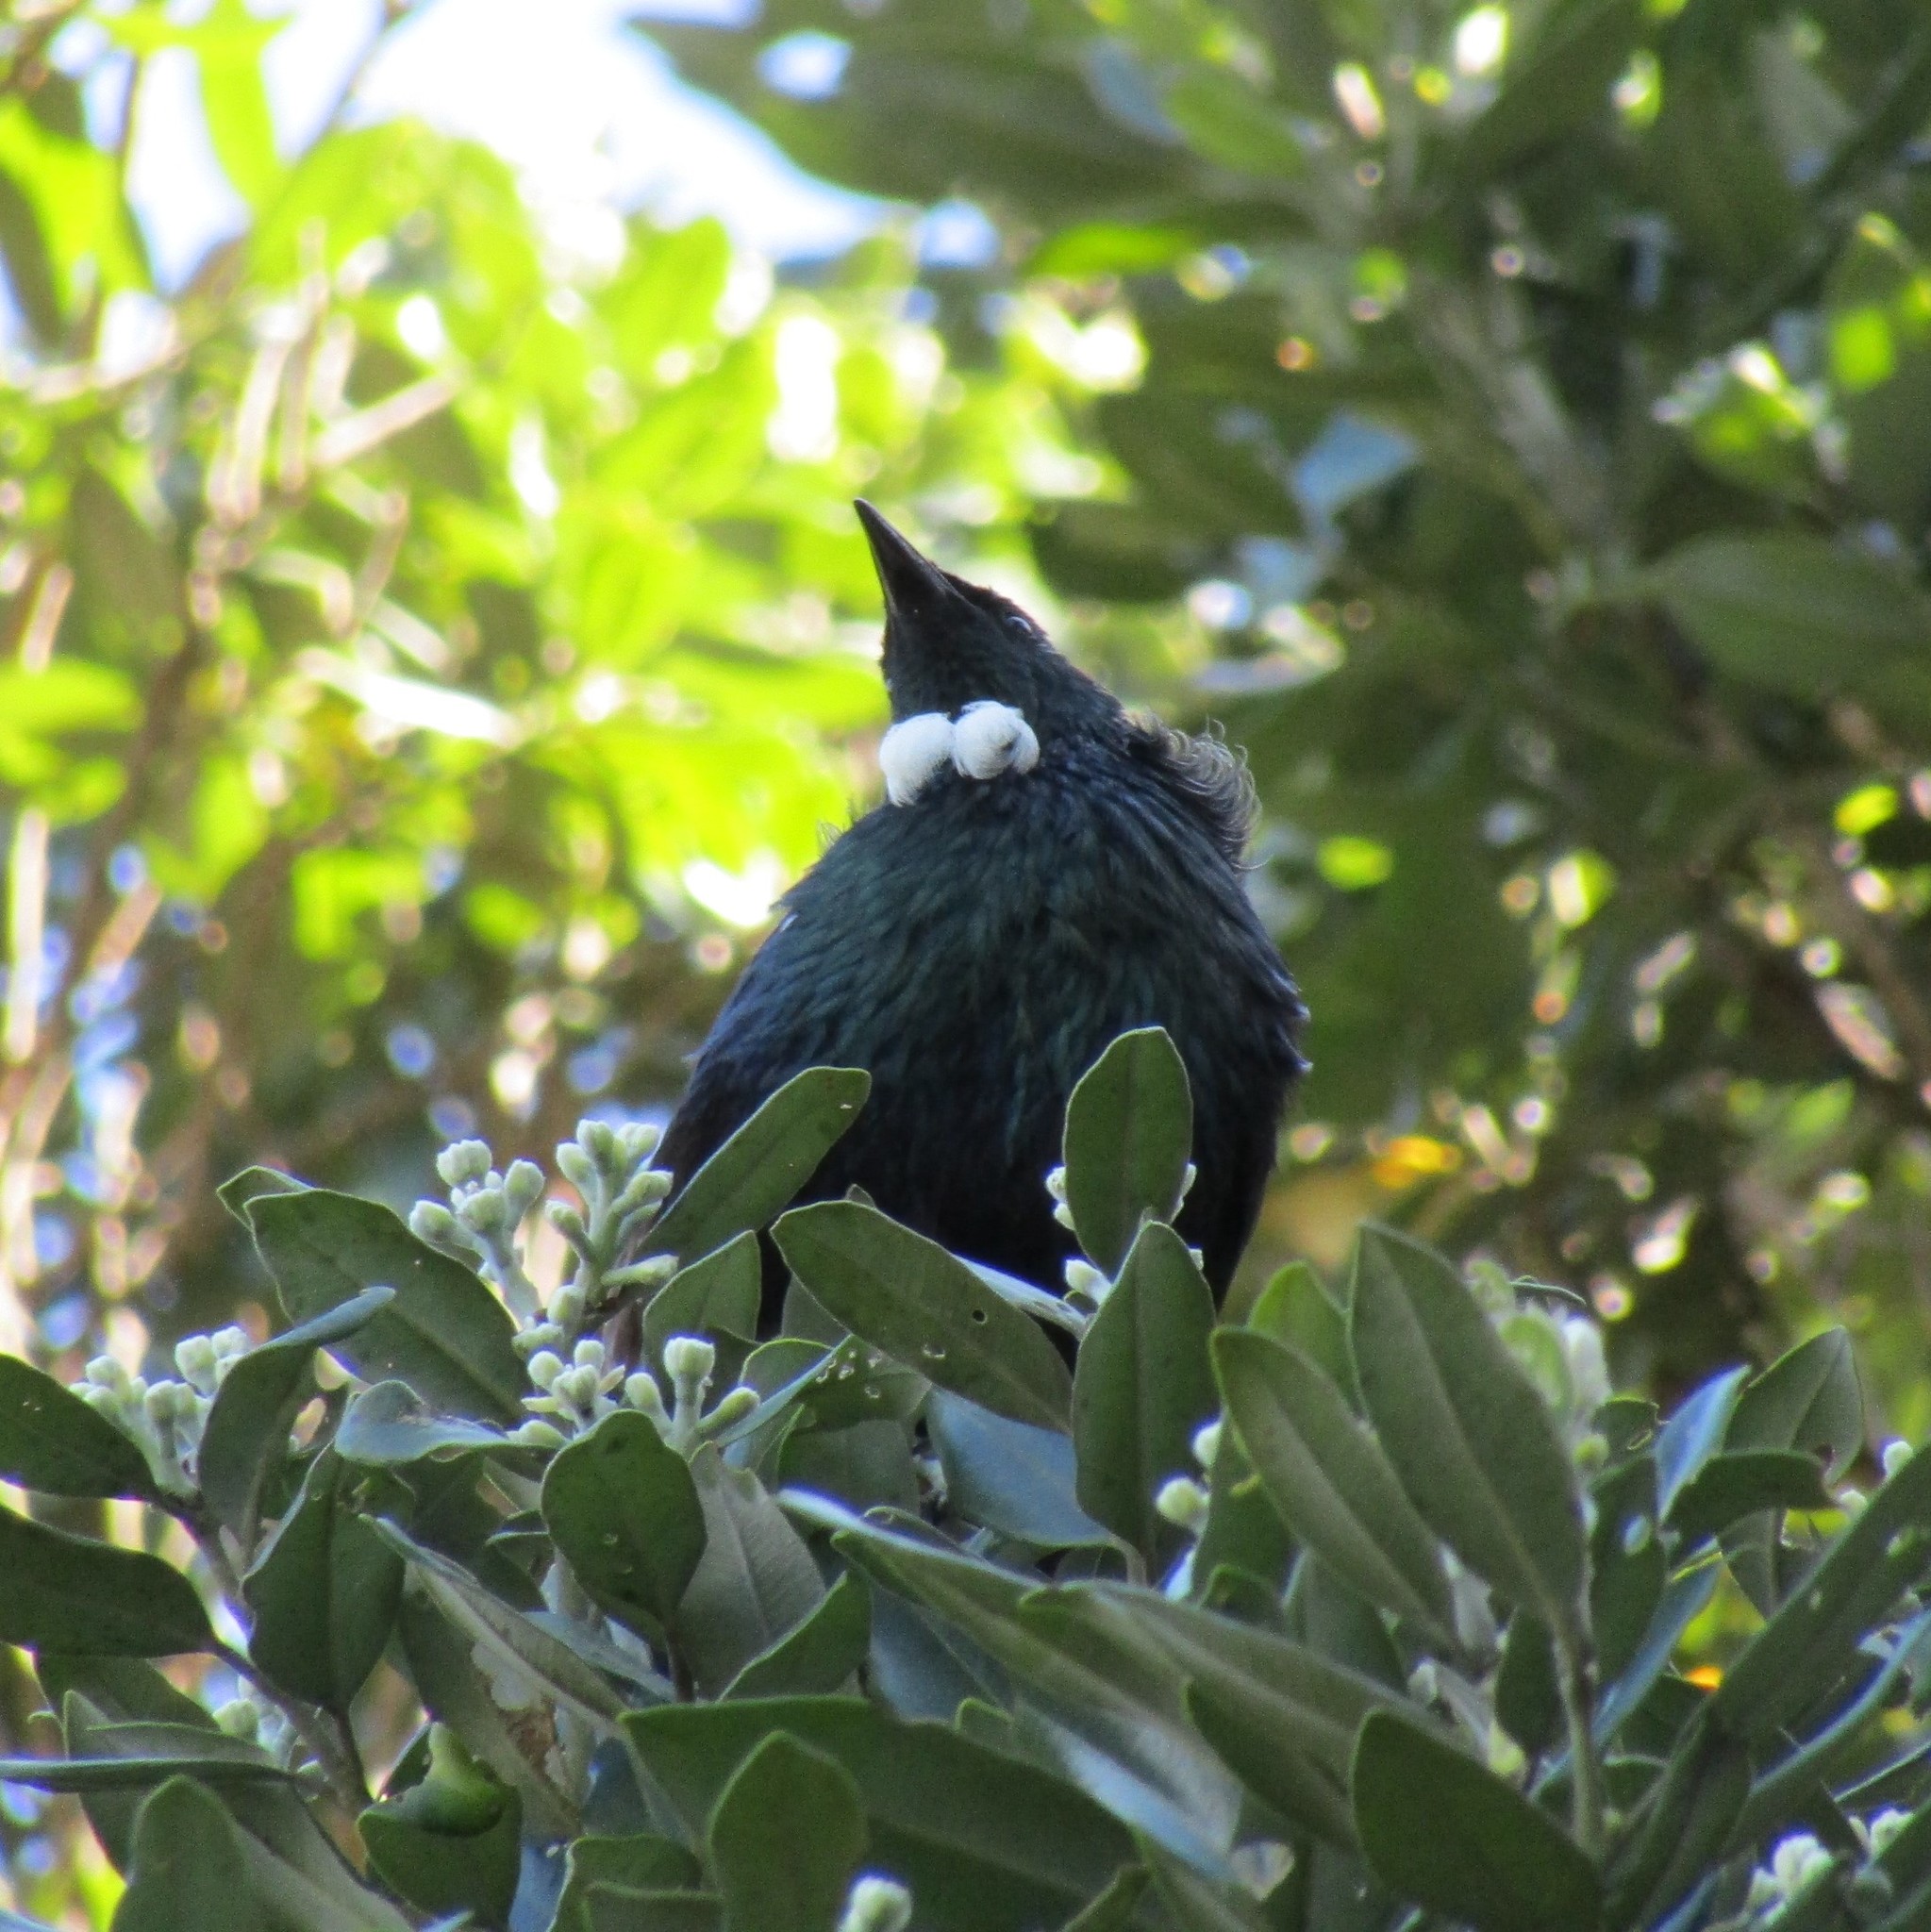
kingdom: Animalia
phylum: Chordata
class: Aves
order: Passeriformes
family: Meliphagidae
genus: Prosthemadera
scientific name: Prosthemadera novaeseelandiae
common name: Tui
